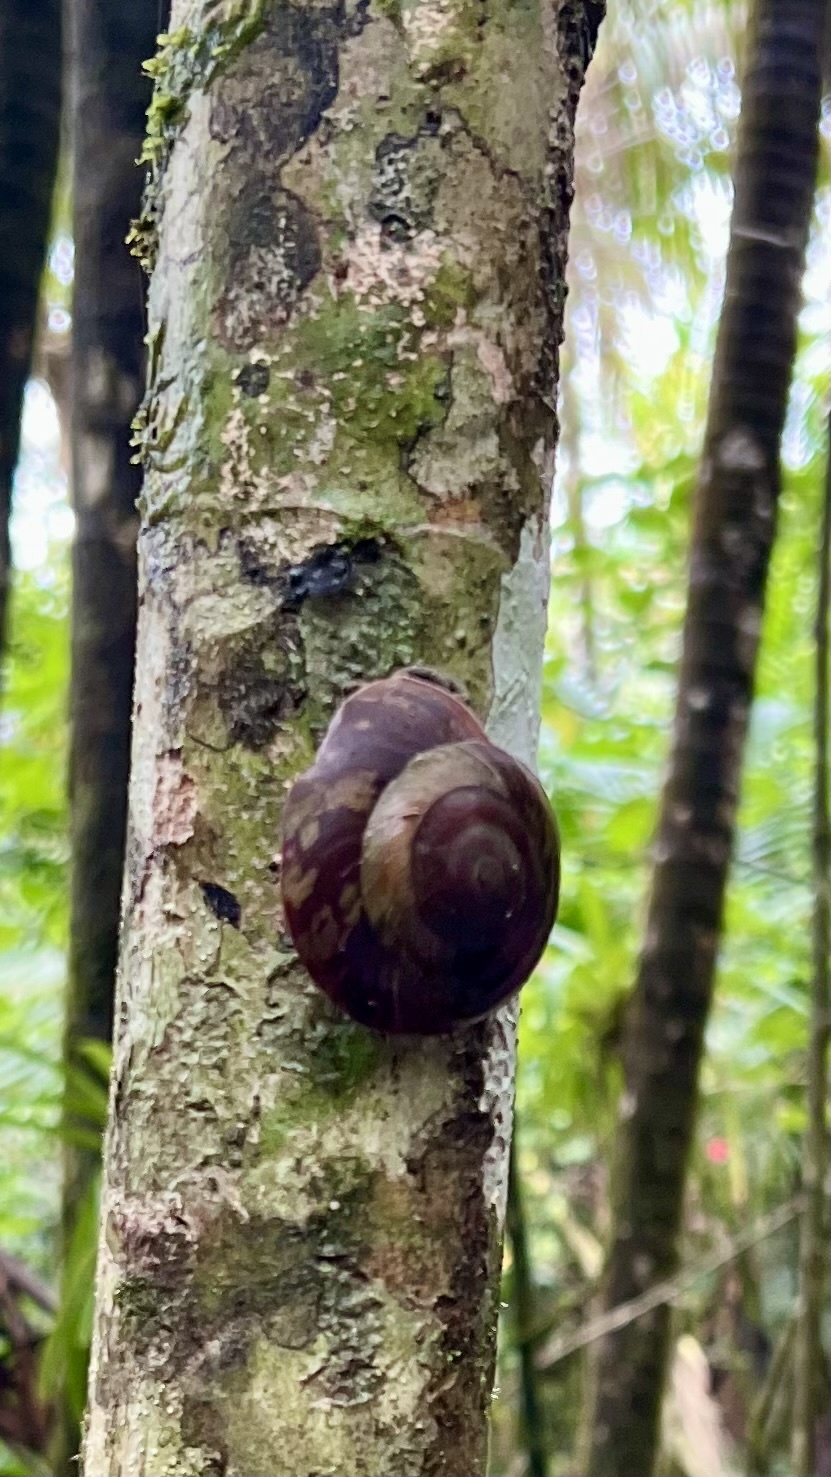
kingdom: Animalia
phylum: Mollusca
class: Gastropoda
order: Stylommatophora
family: Solaropsidae
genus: Caracolus
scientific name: Caracolus carocolla
